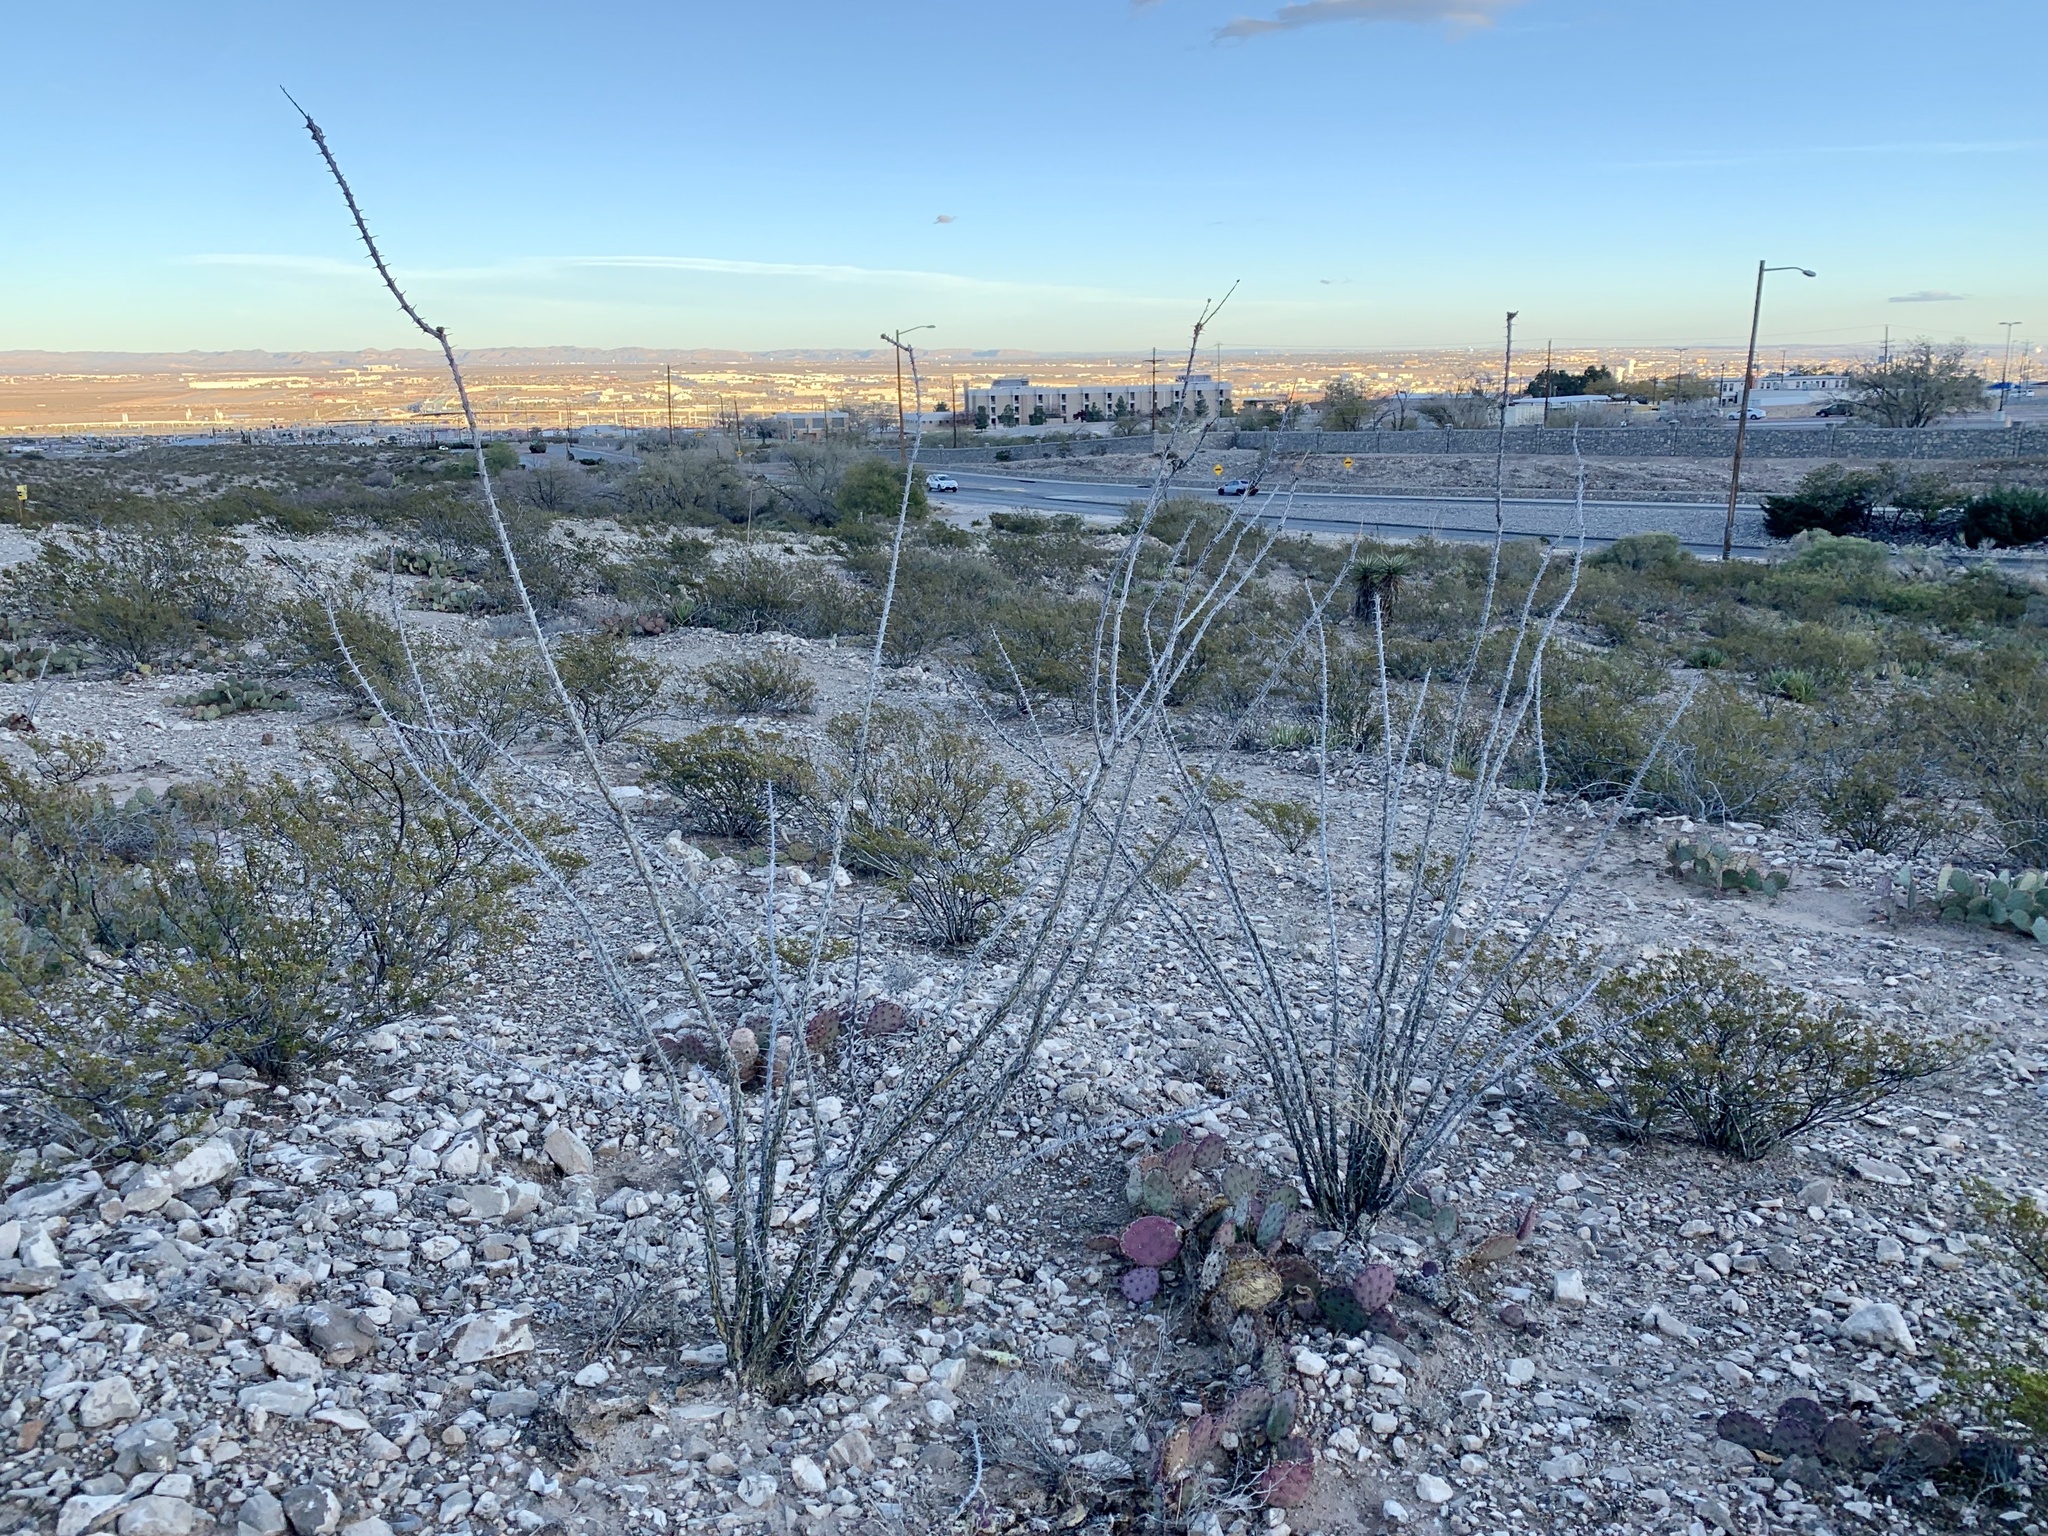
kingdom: Plantae
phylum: Tracheophyta
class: Magnoliopsida
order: Ericales
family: Fouquieriaceae
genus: Fouquieria
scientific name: Fouquieria splendens
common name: Vine-cactus
